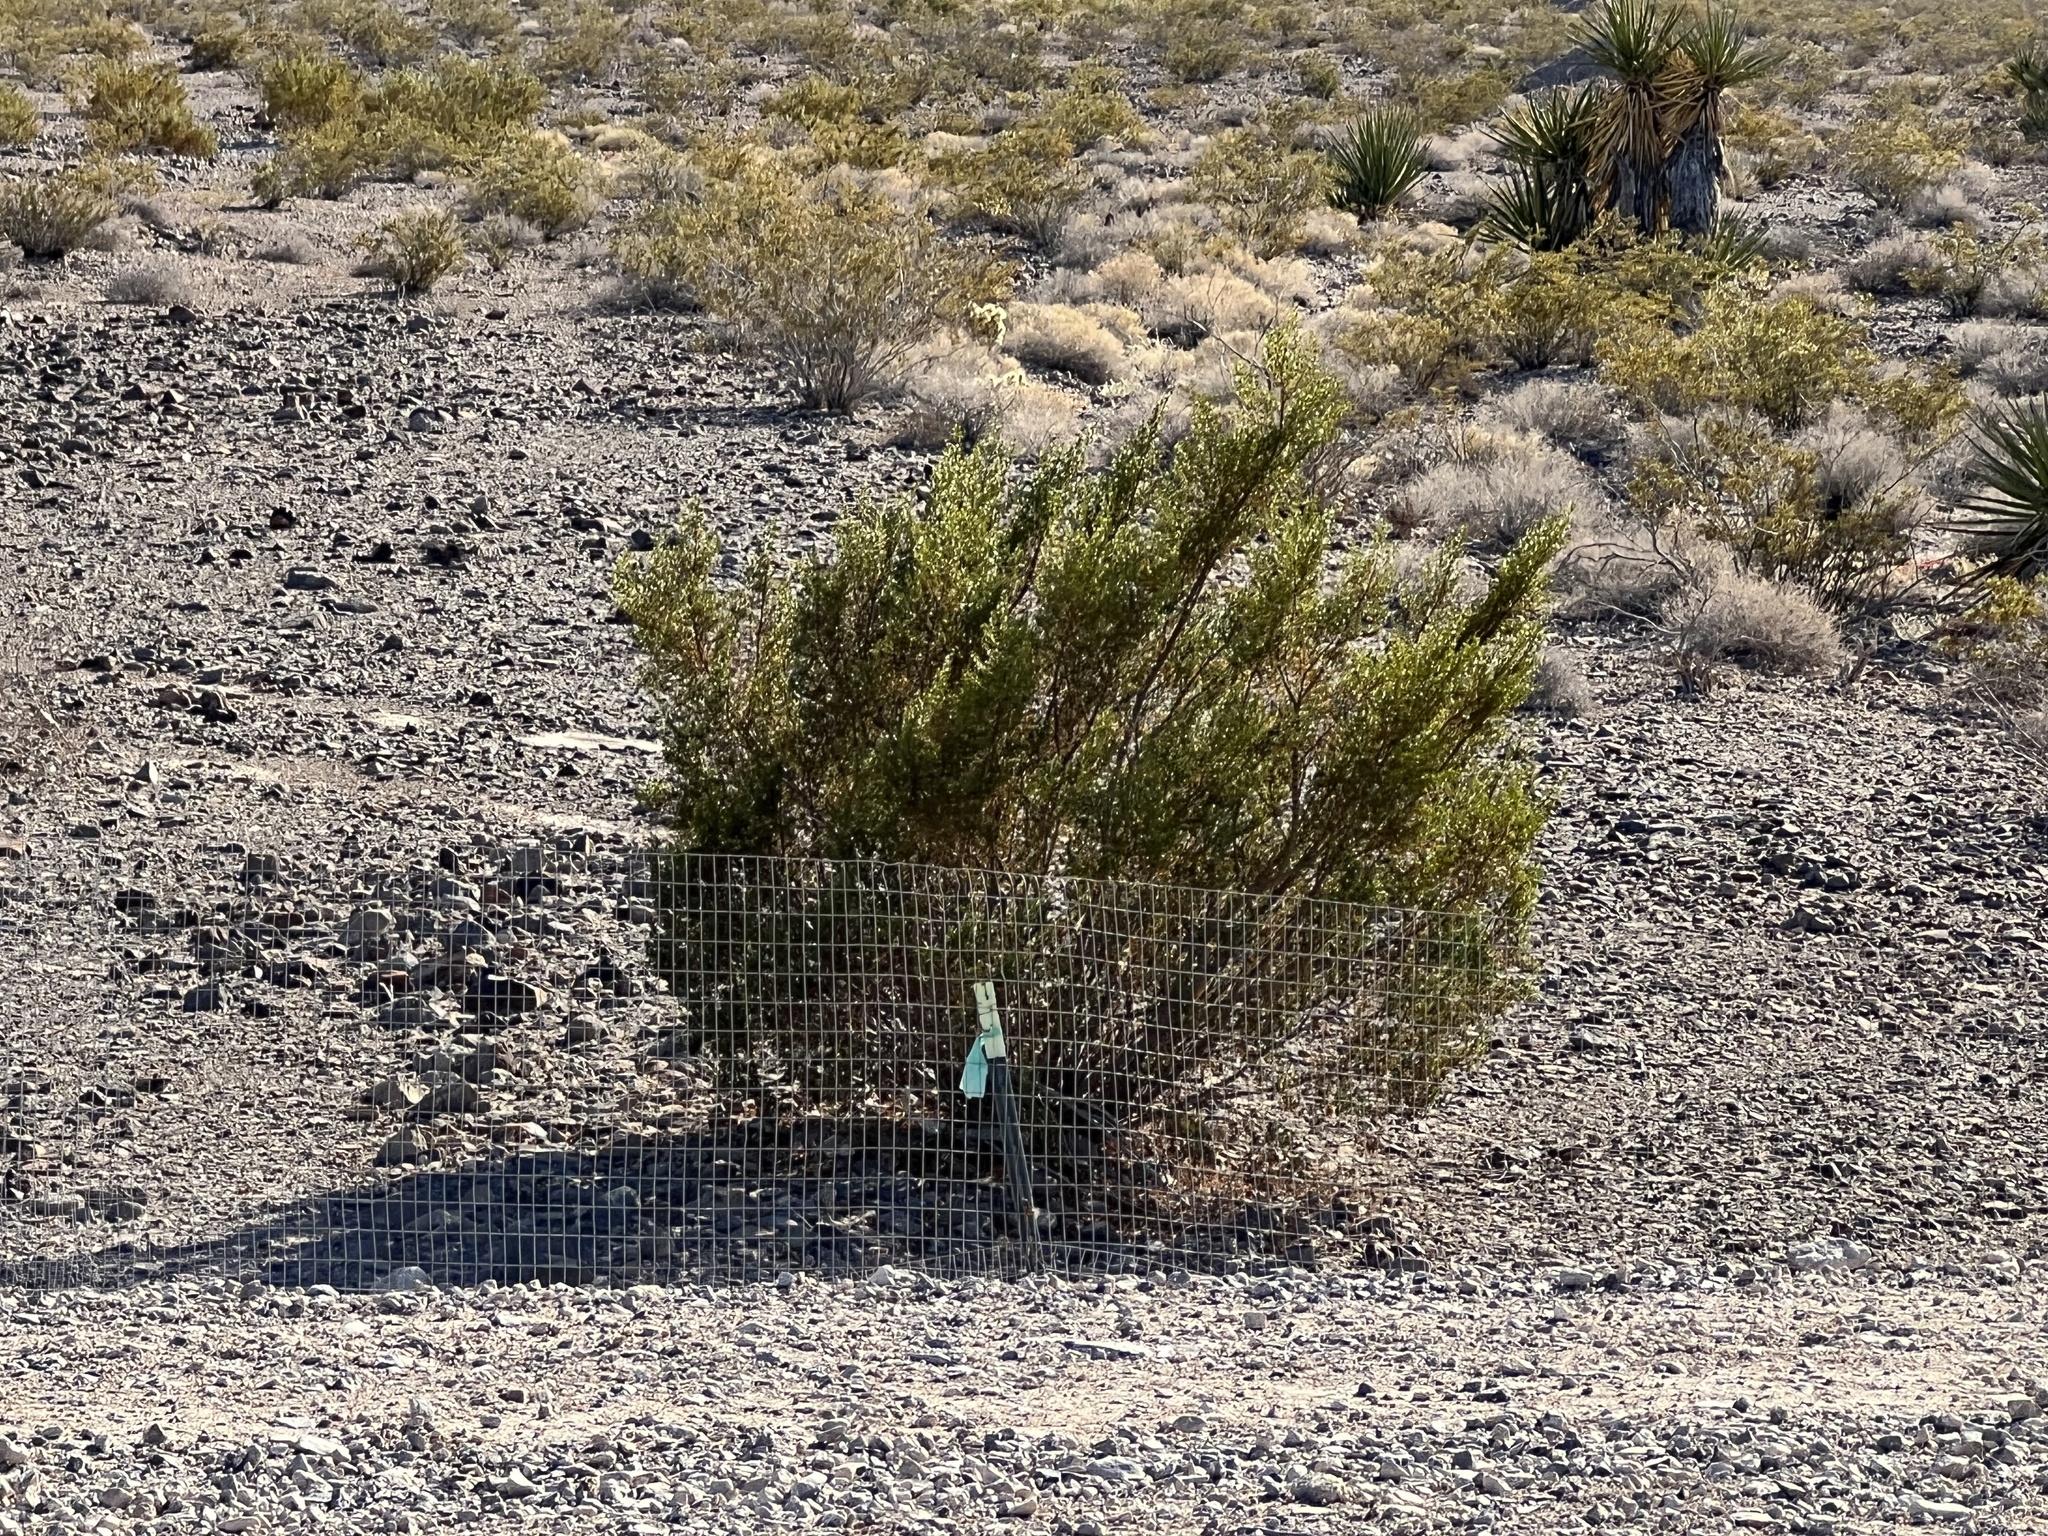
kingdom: Plantae
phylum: Tracheophyta
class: Magnoliopsida
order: Zygophyllales
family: Zygophyllaceae
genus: Larrea
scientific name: Larrea tridentata
